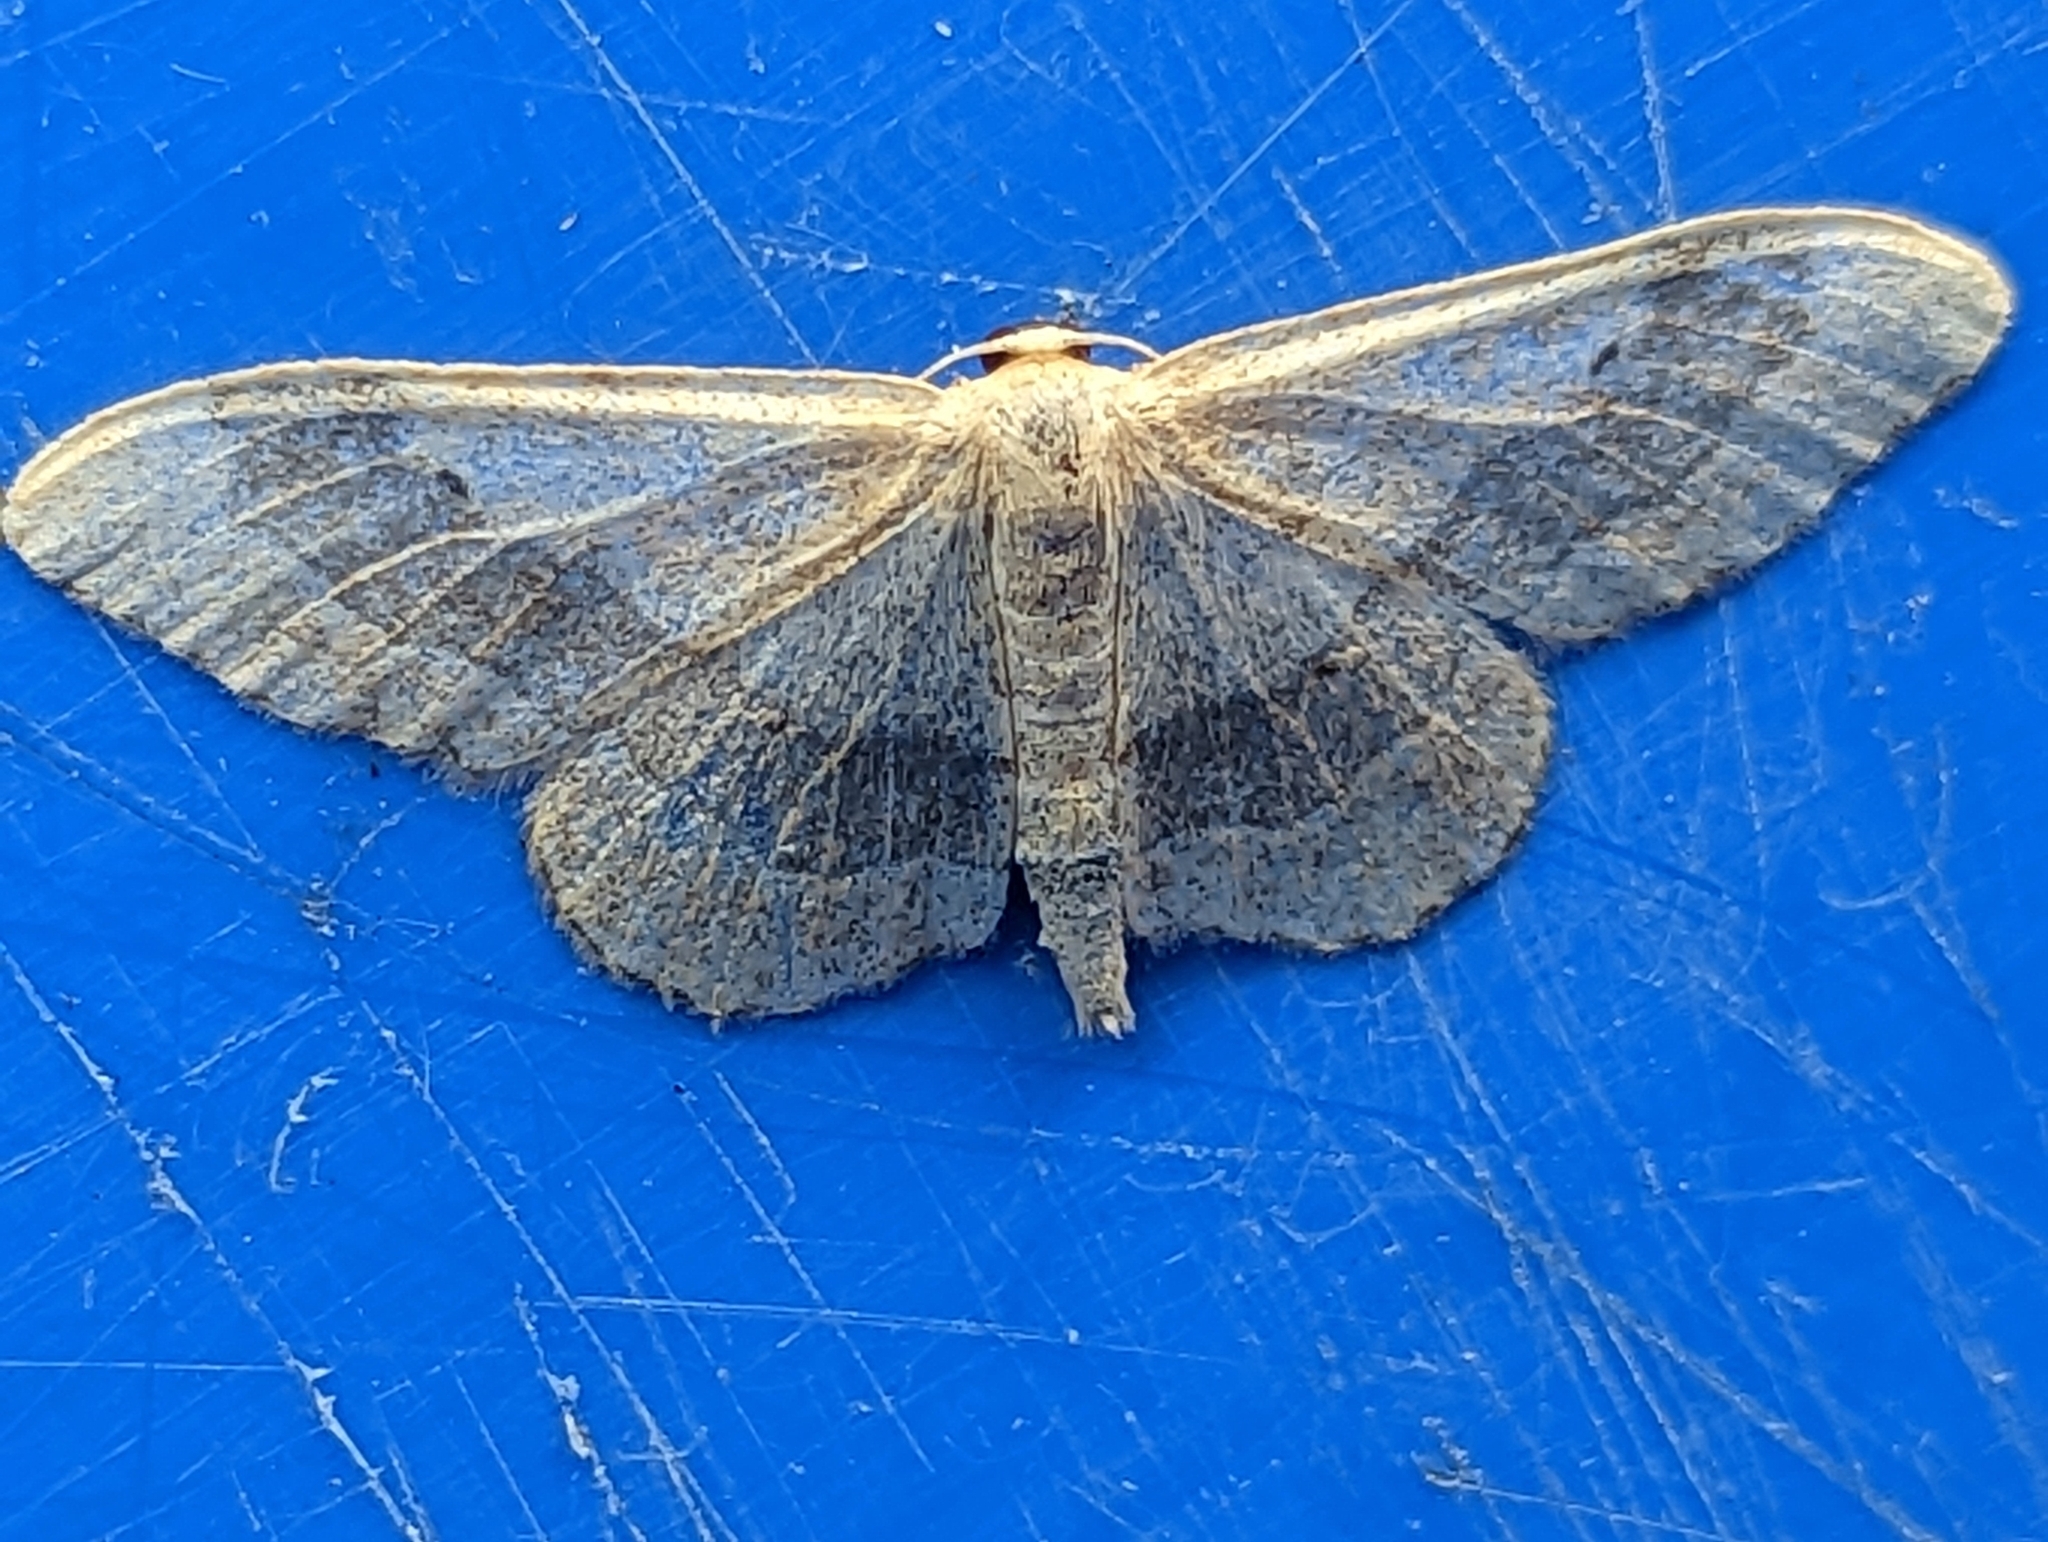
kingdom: Animalia
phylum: Arthropoda
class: Insecta
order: Lepidoptera
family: Geometridae
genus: Idaea
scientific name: Idaea aversata
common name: Riband wave
